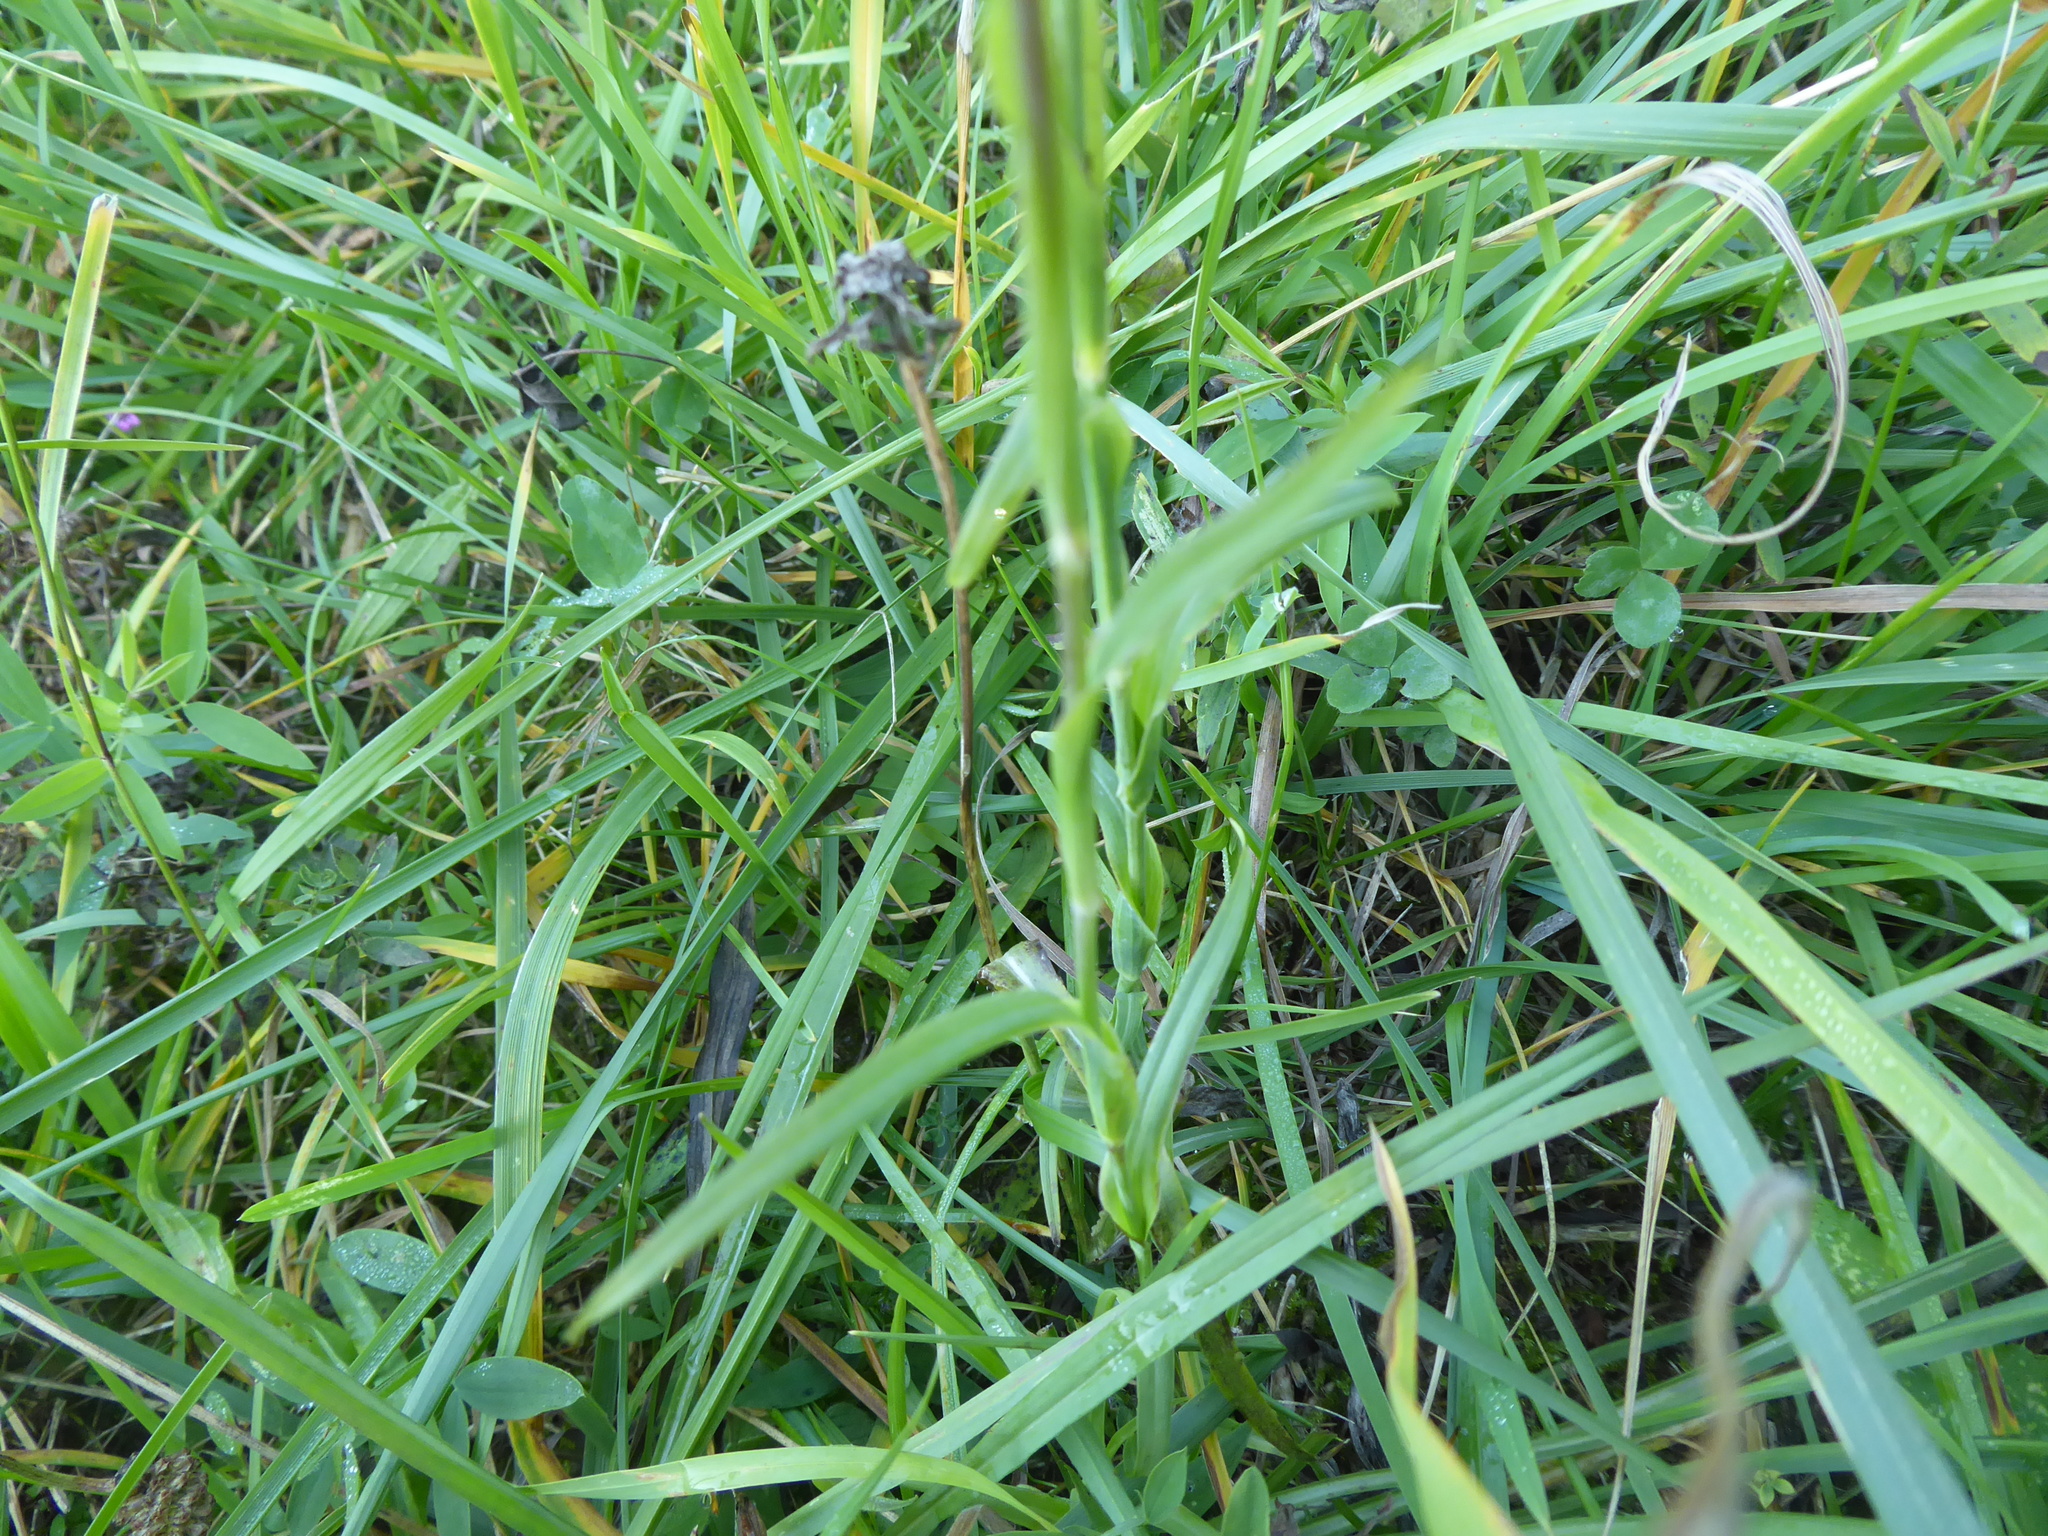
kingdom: Plantae
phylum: Tracheophyta
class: Magnoliopsida
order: Asterales
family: Asteraceae
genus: Tragopogon
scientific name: Tragopogon orientalis
